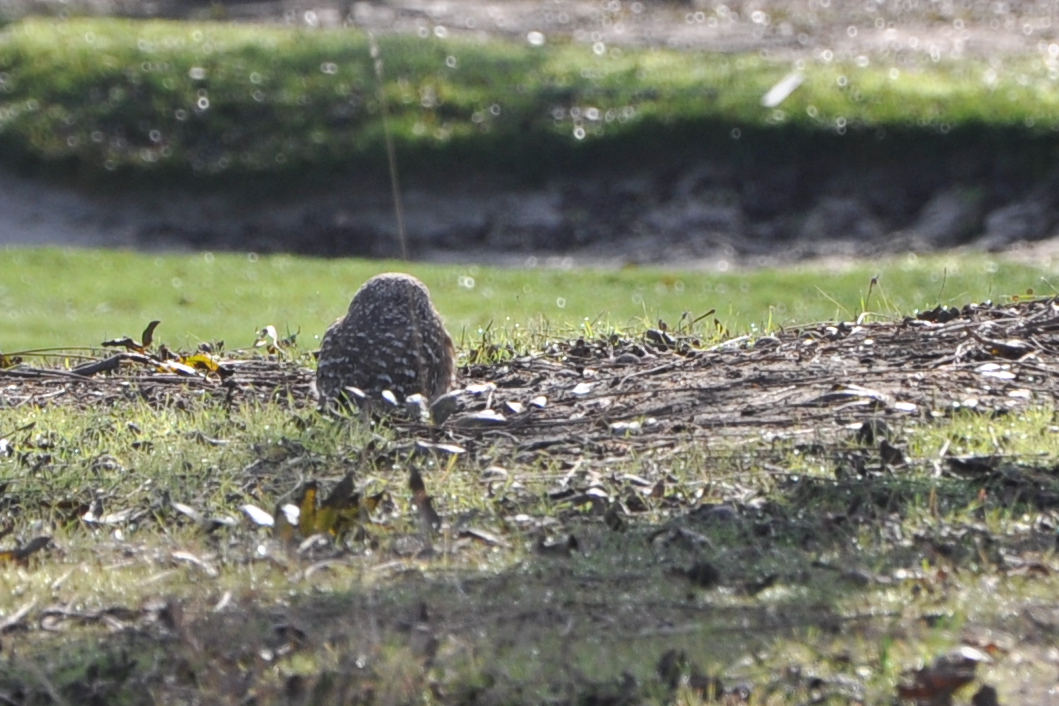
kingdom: Animalia
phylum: Chordata
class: Aves
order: Strigiformes
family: Strigidae
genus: Athene
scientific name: Athene cunicularia
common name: Burrowing owl
